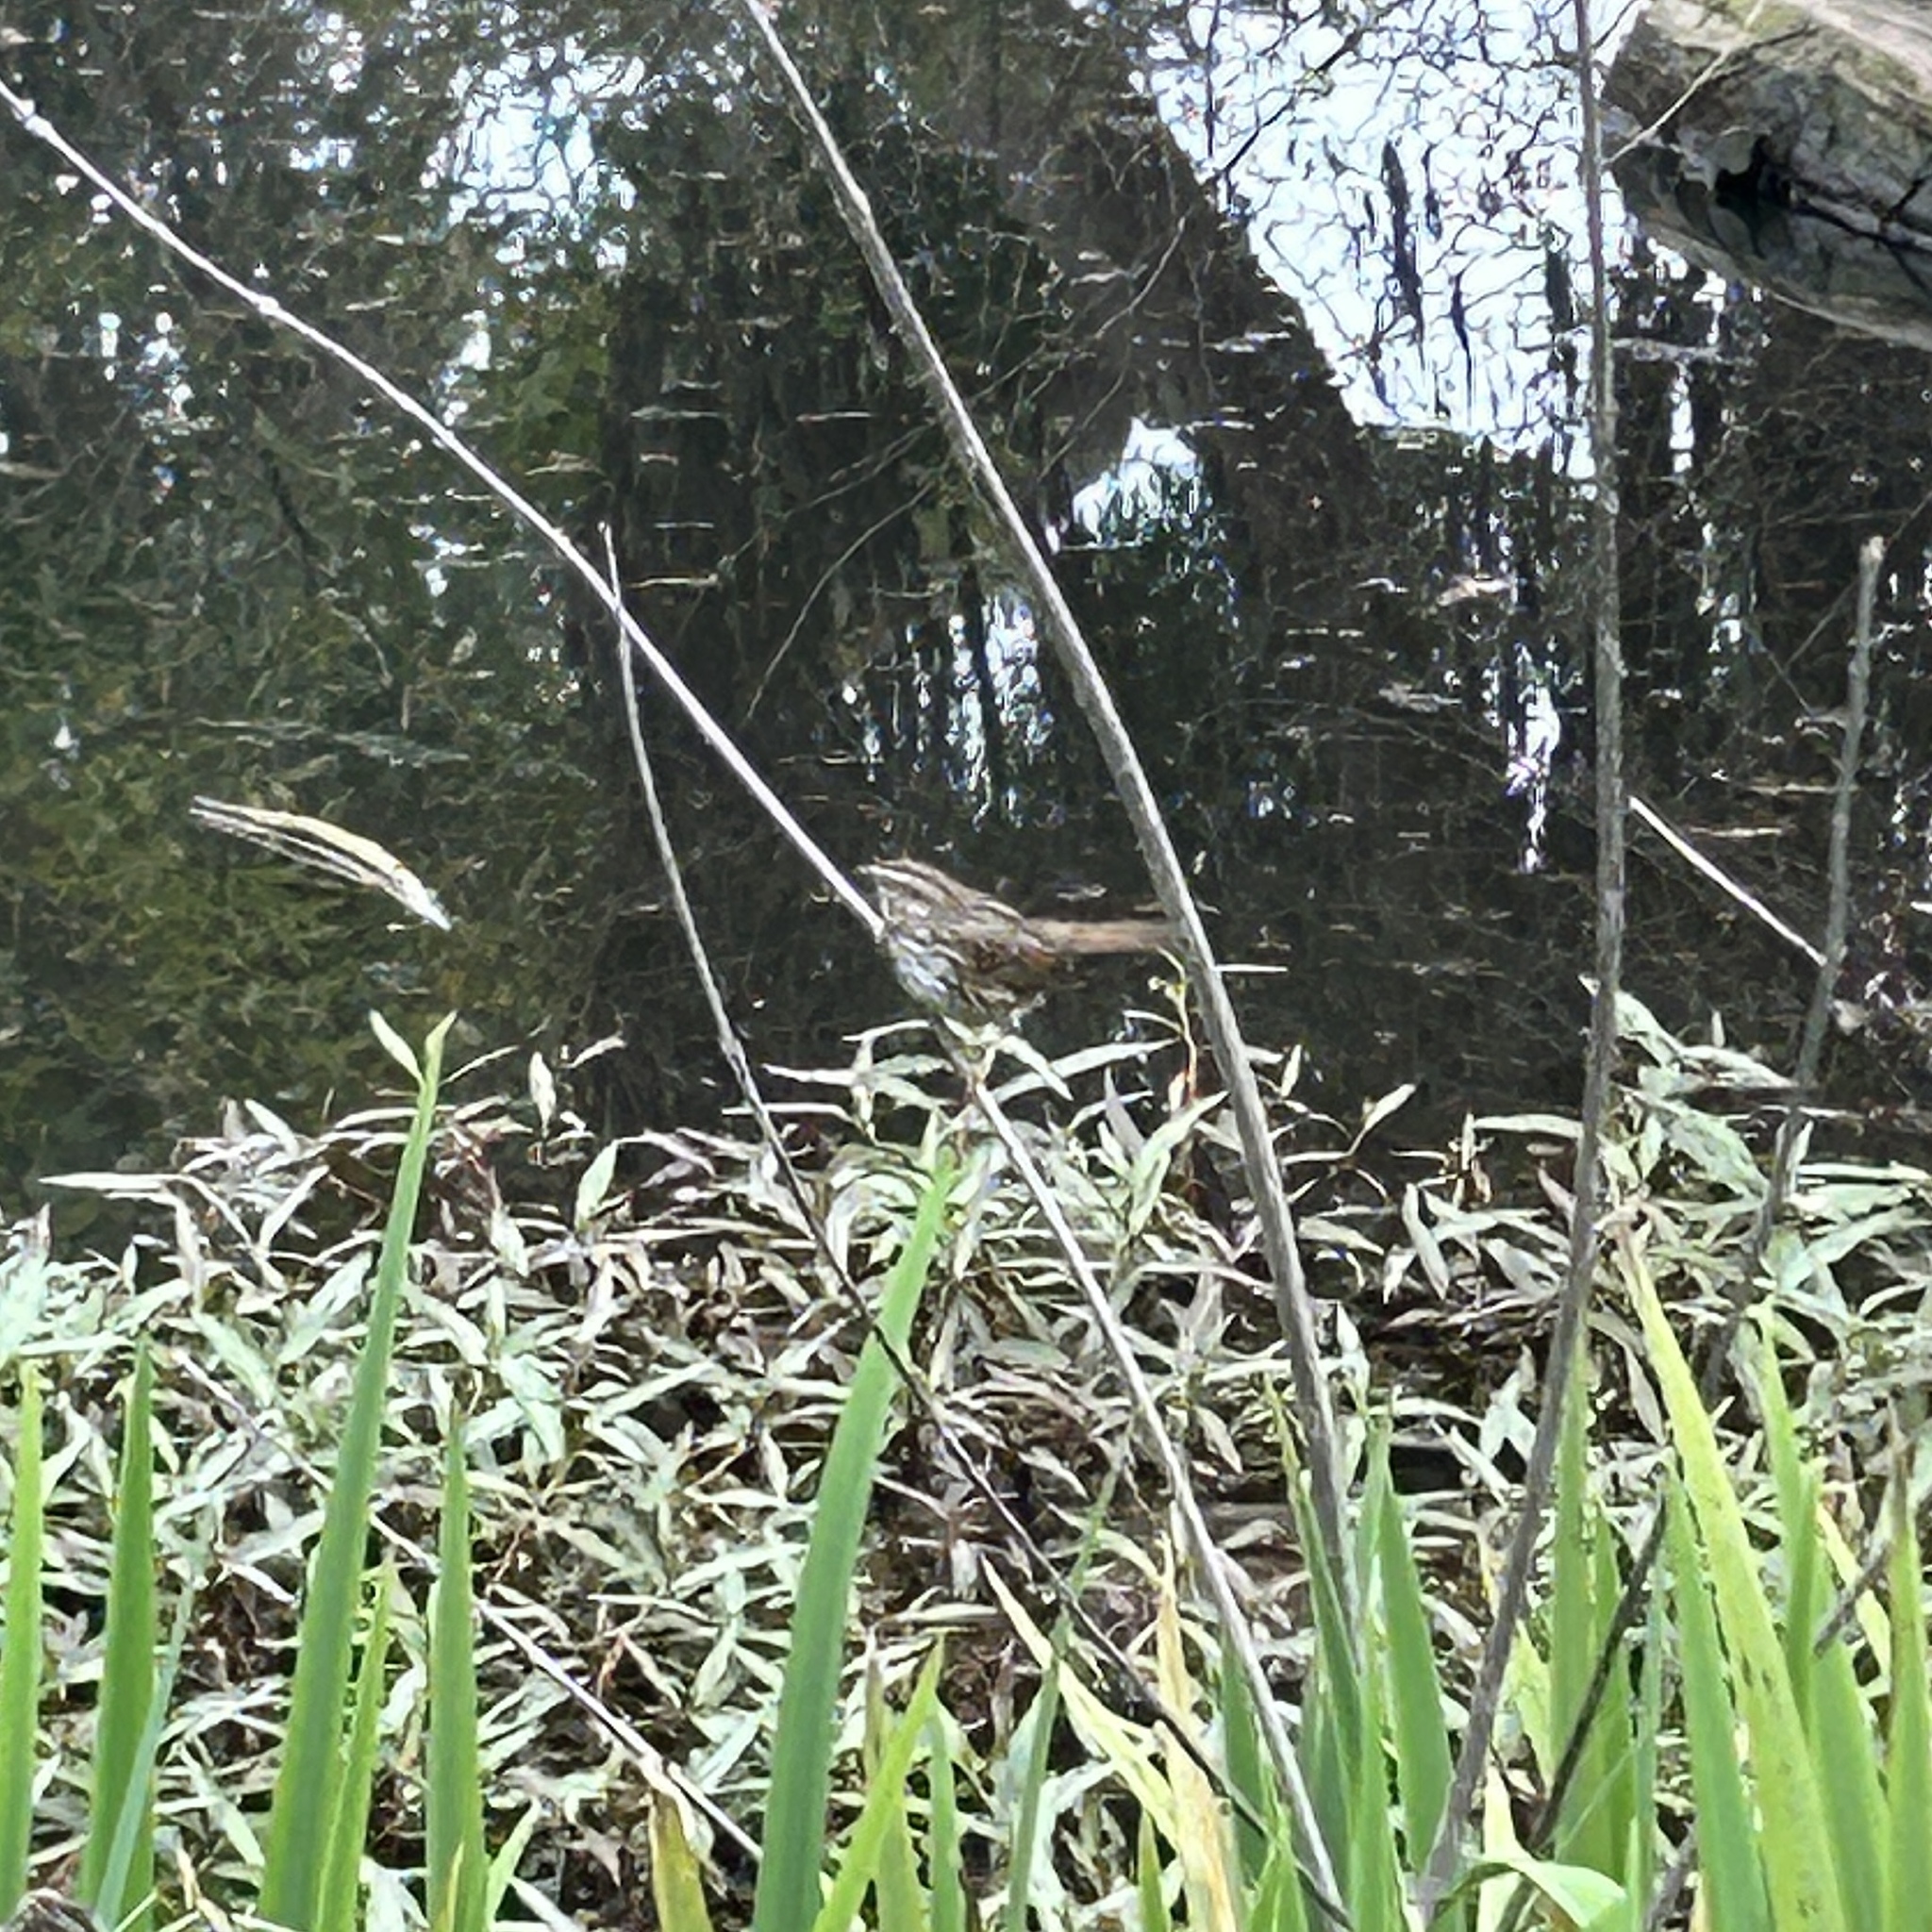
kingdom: Animalia
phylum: Chordata
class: Aves
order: Passeriformes
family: Passerellidae
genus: Melospiza
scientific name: Melospiza melodia
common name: Song sparrow
